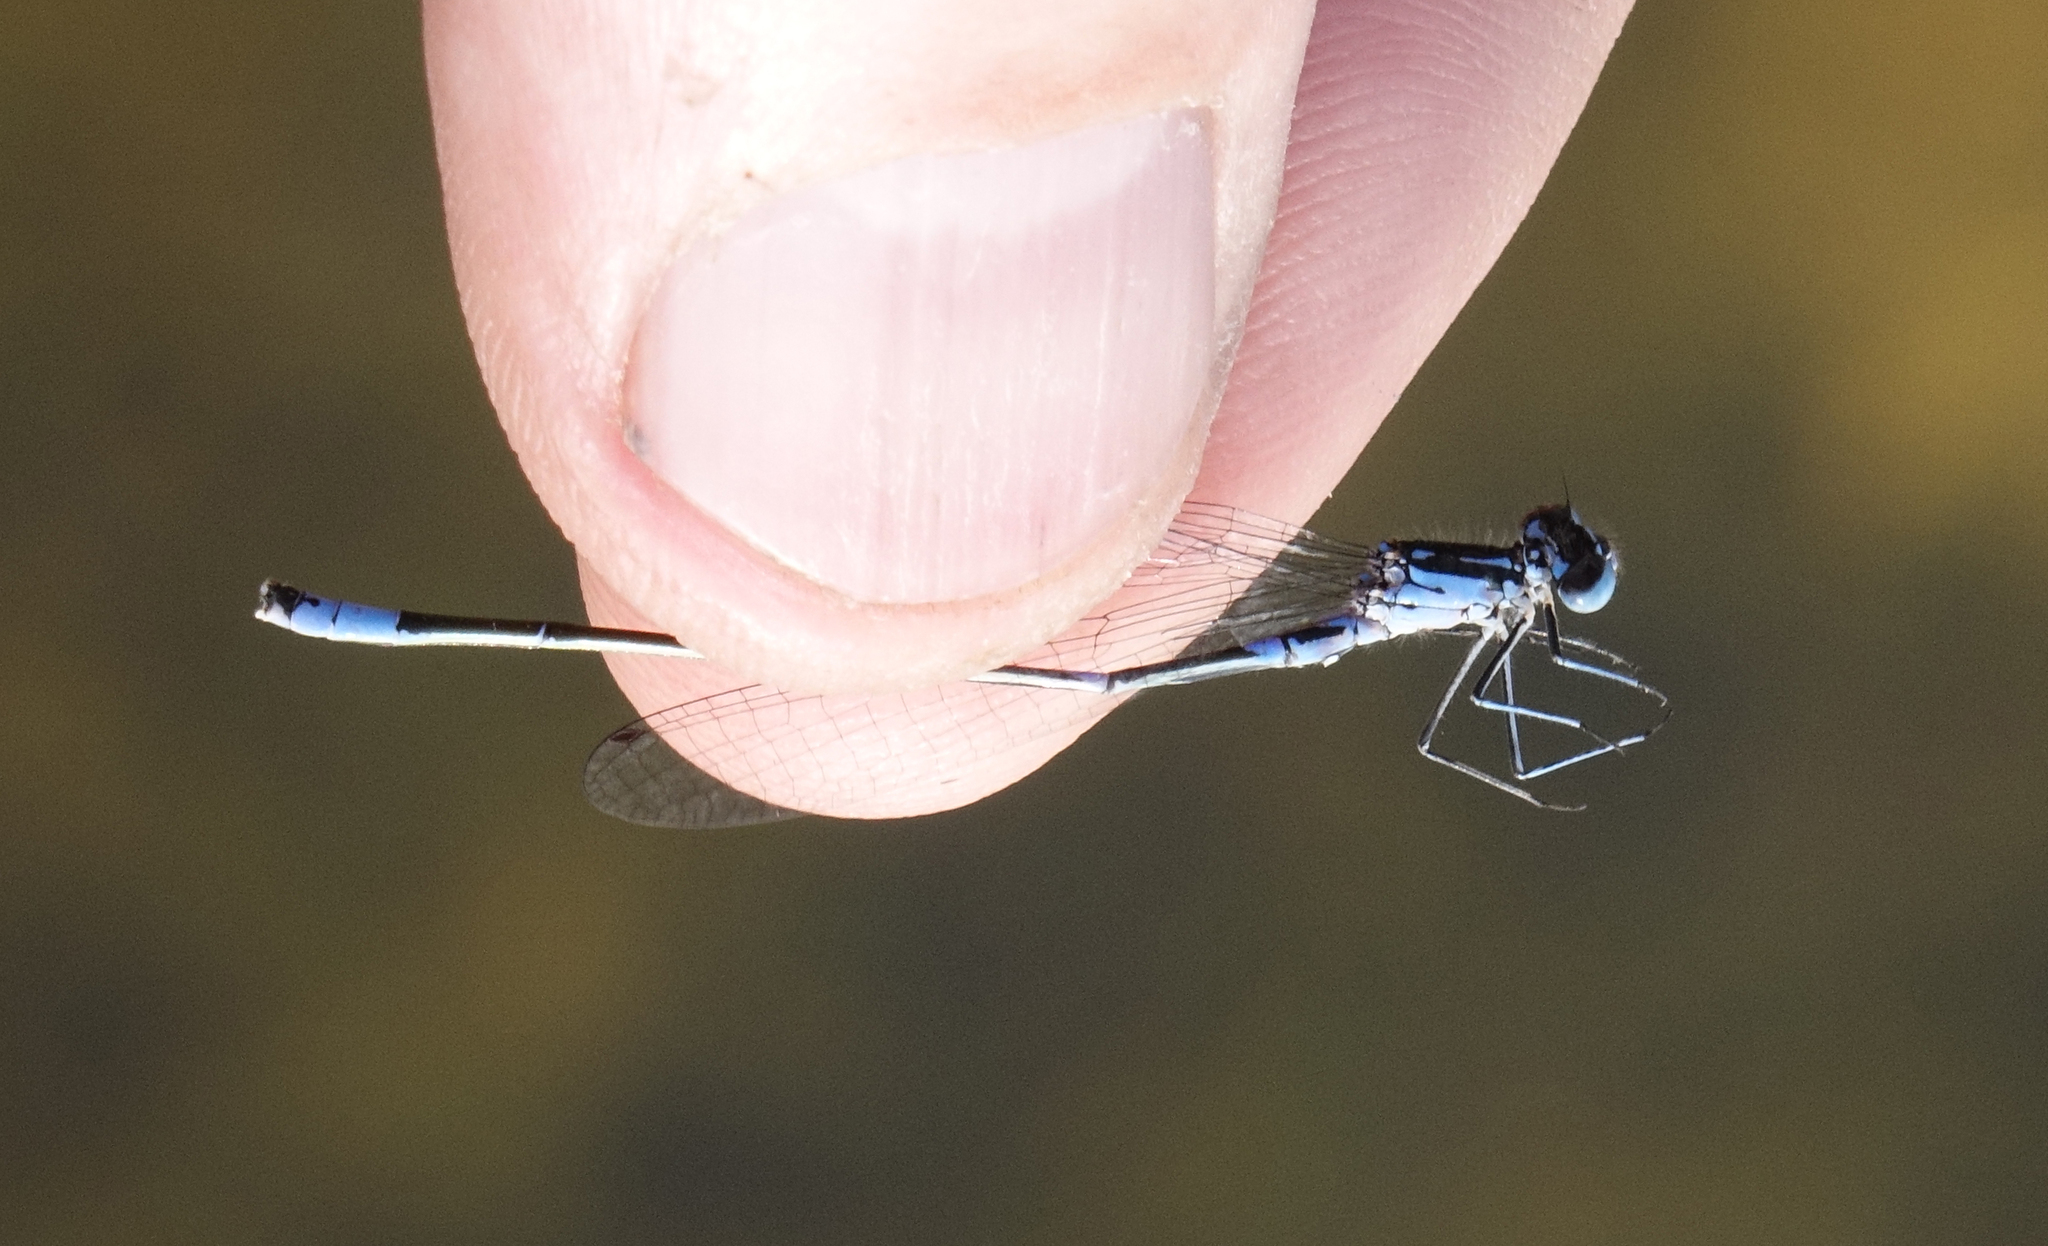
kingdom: Animalia
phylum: Arthropoda
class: Insecta
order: Odonata
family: Coenagrionidae
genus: Coenagrion
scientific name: Coenagrion pulchellum
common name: Variable bluet
